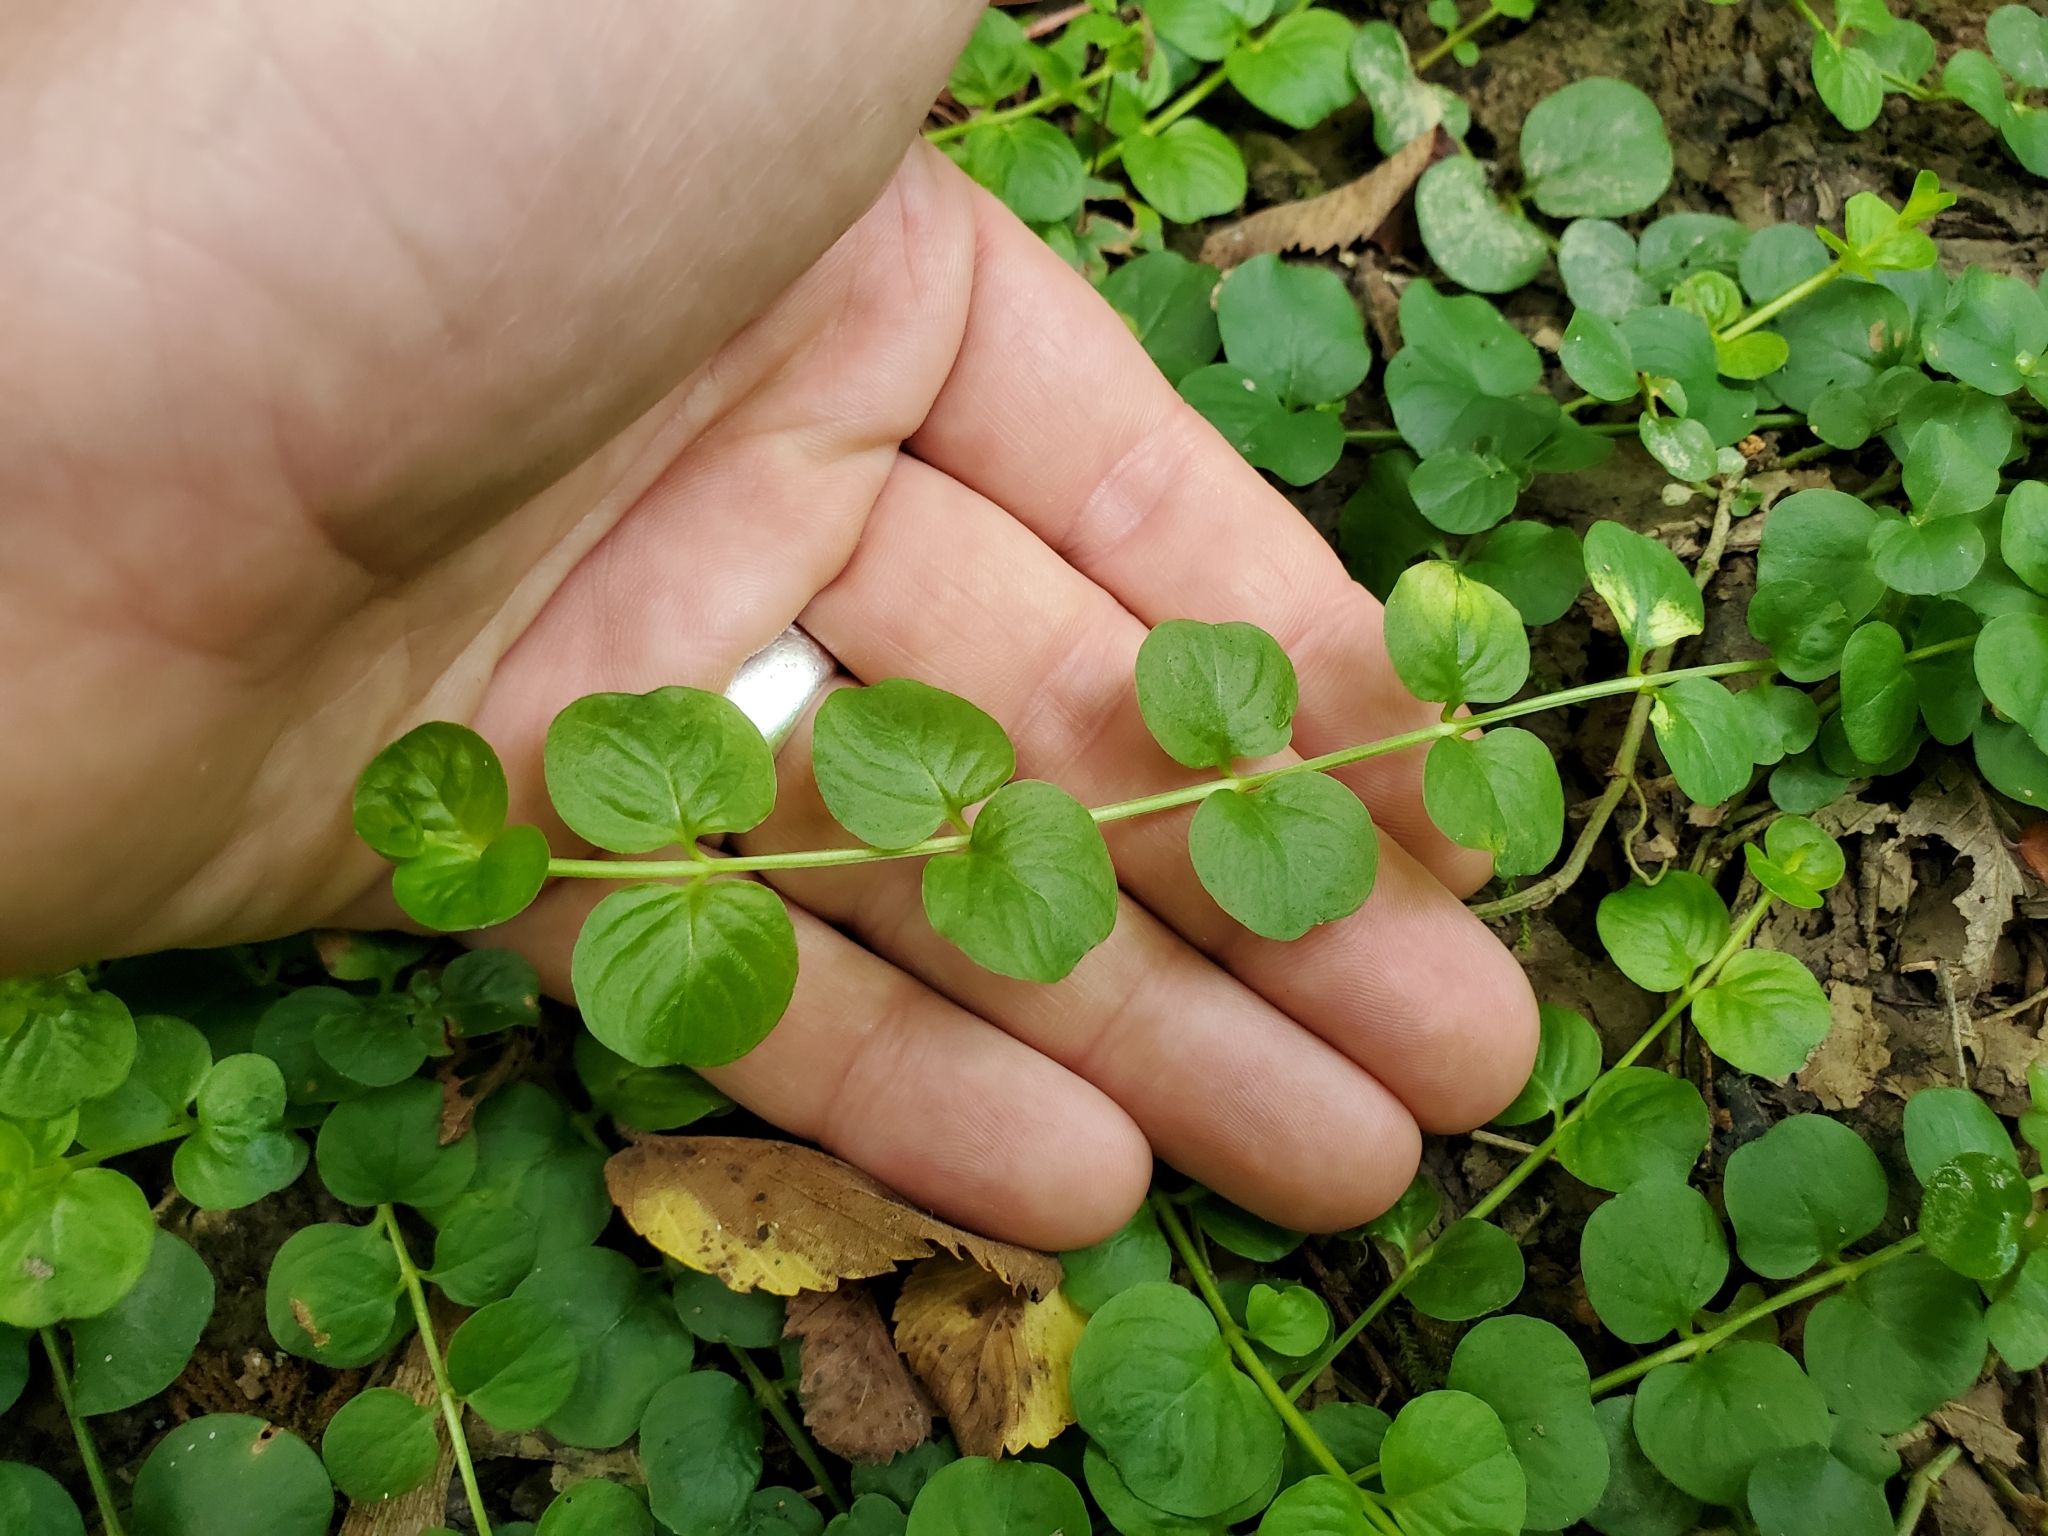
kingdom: Plantae
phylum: Tracheophyta
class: Magnoliopsida
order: Ericales
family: Primulaceae
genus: Lysimachia
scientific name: Lysimachia nummularia
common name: Moneywort
